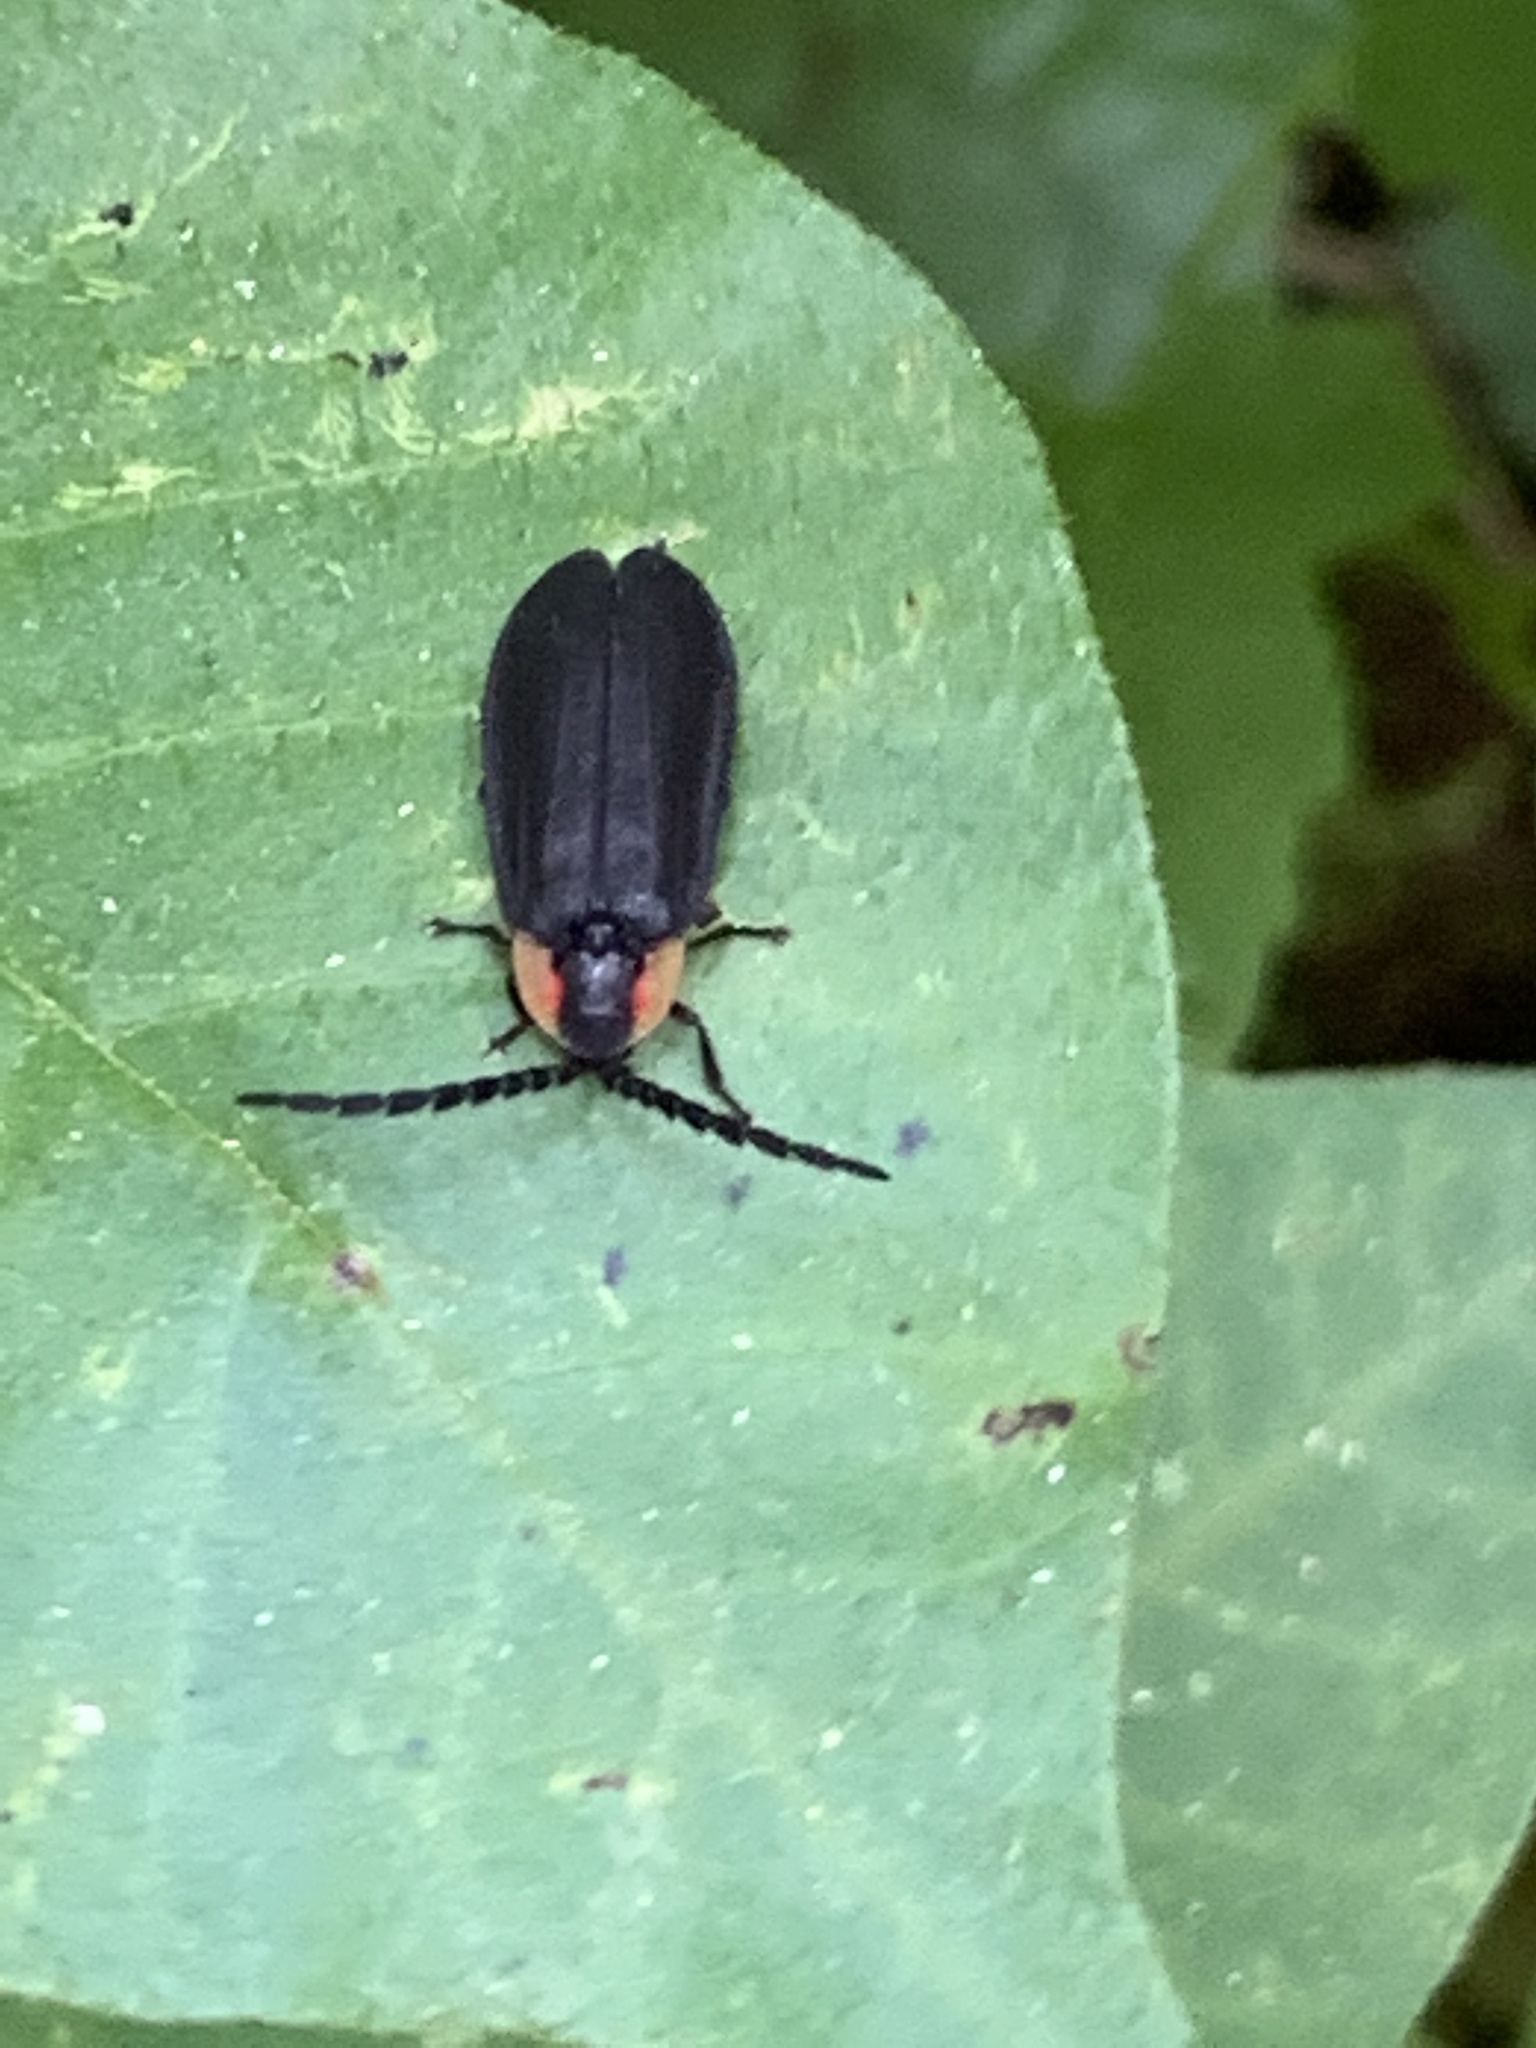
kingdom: Animalia
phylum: Arthropoda
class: Insecta
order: Coleoptera
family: Lampyridae
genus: Lucidota
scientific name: Lucidota atra
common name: Black firefly
